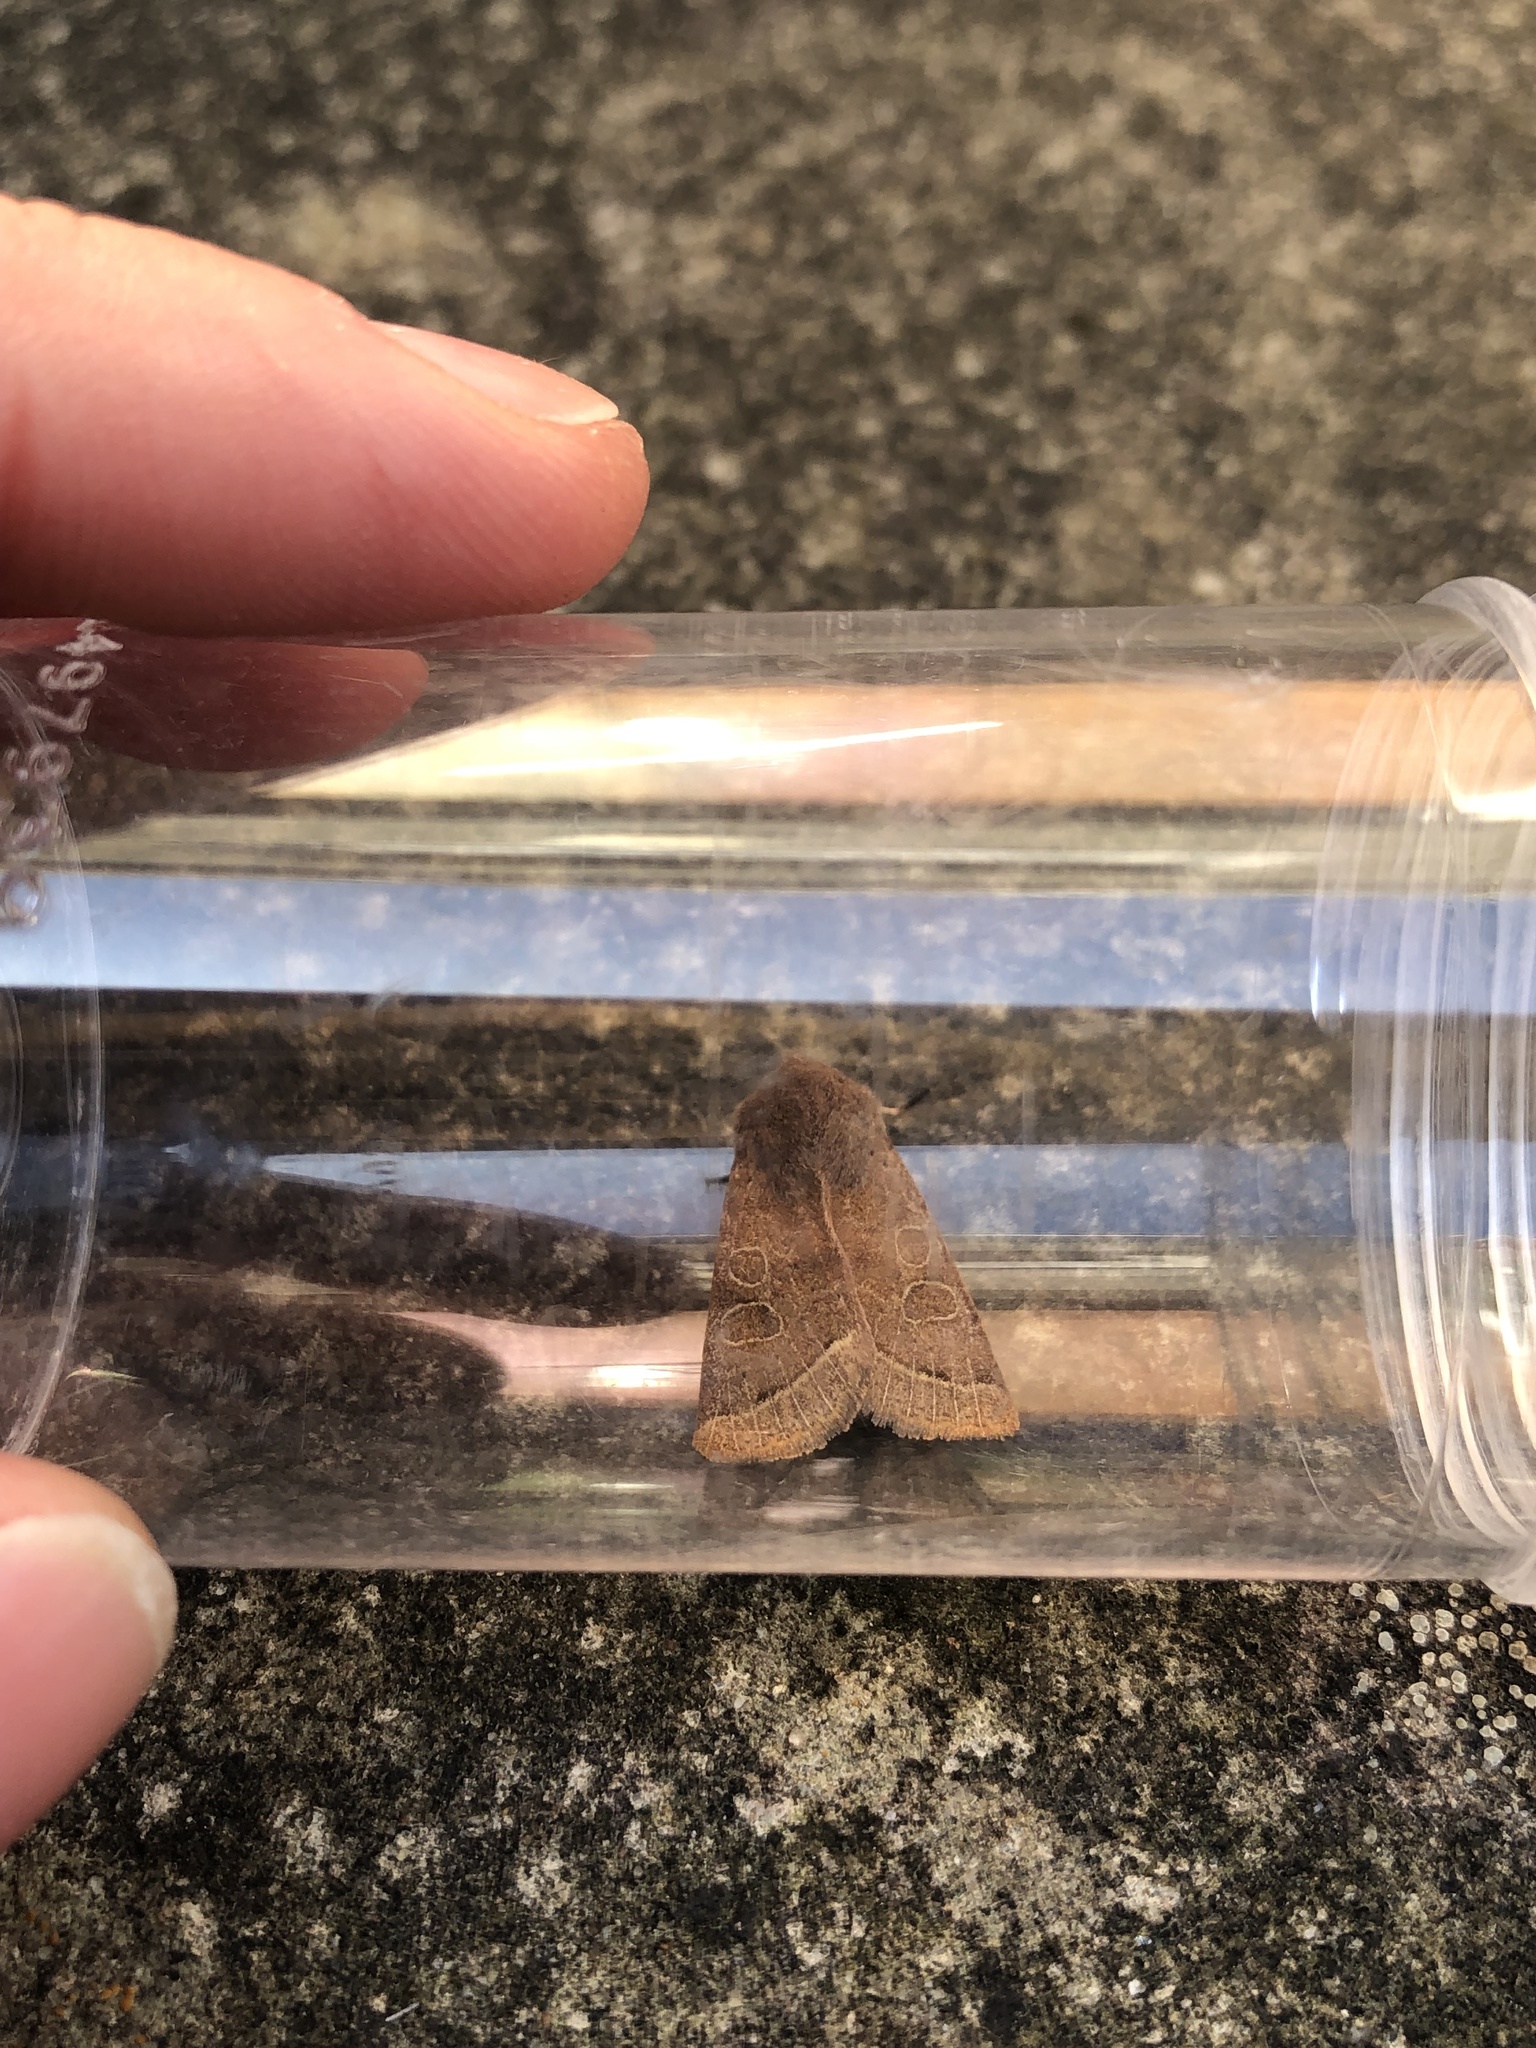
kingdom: Animalia
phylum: Arthropoda
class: Insecta
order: Lepidoptera
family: Noctuidae
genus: Orthosia
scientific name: Orthosia cerasi
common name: Common quaker
